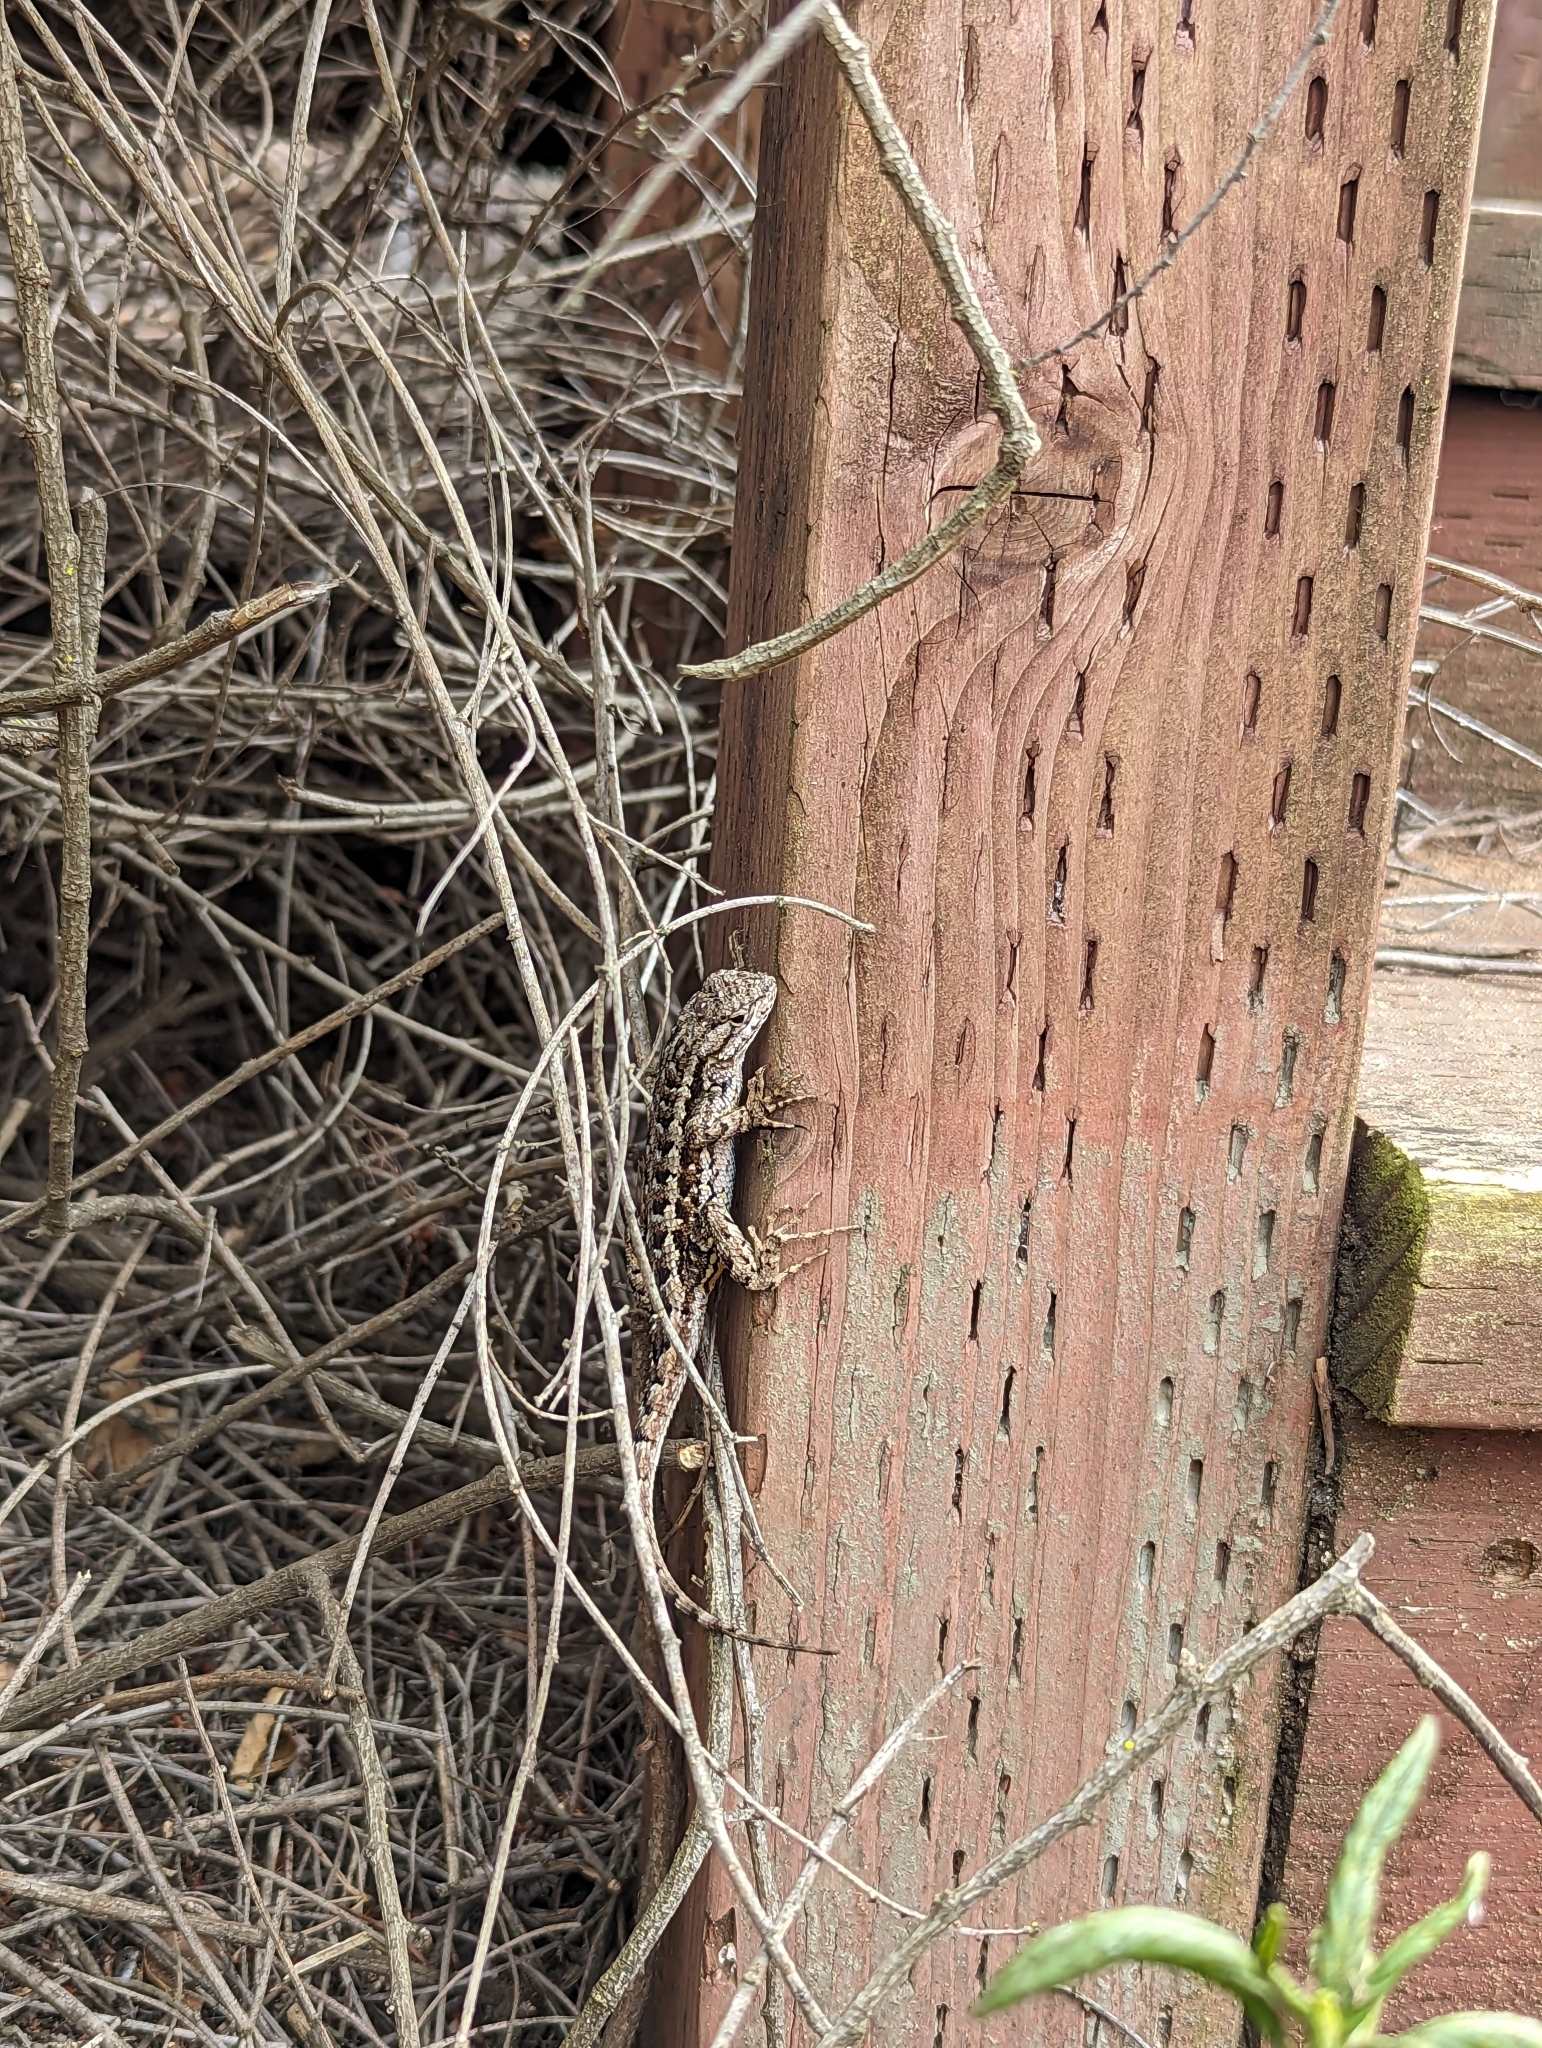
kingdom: Animalia
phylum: Chordata
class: Squamata
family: Phrynosomatidae
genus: Sceloporus
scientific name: Sceloporus occidentalis
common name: Western fence lizard
